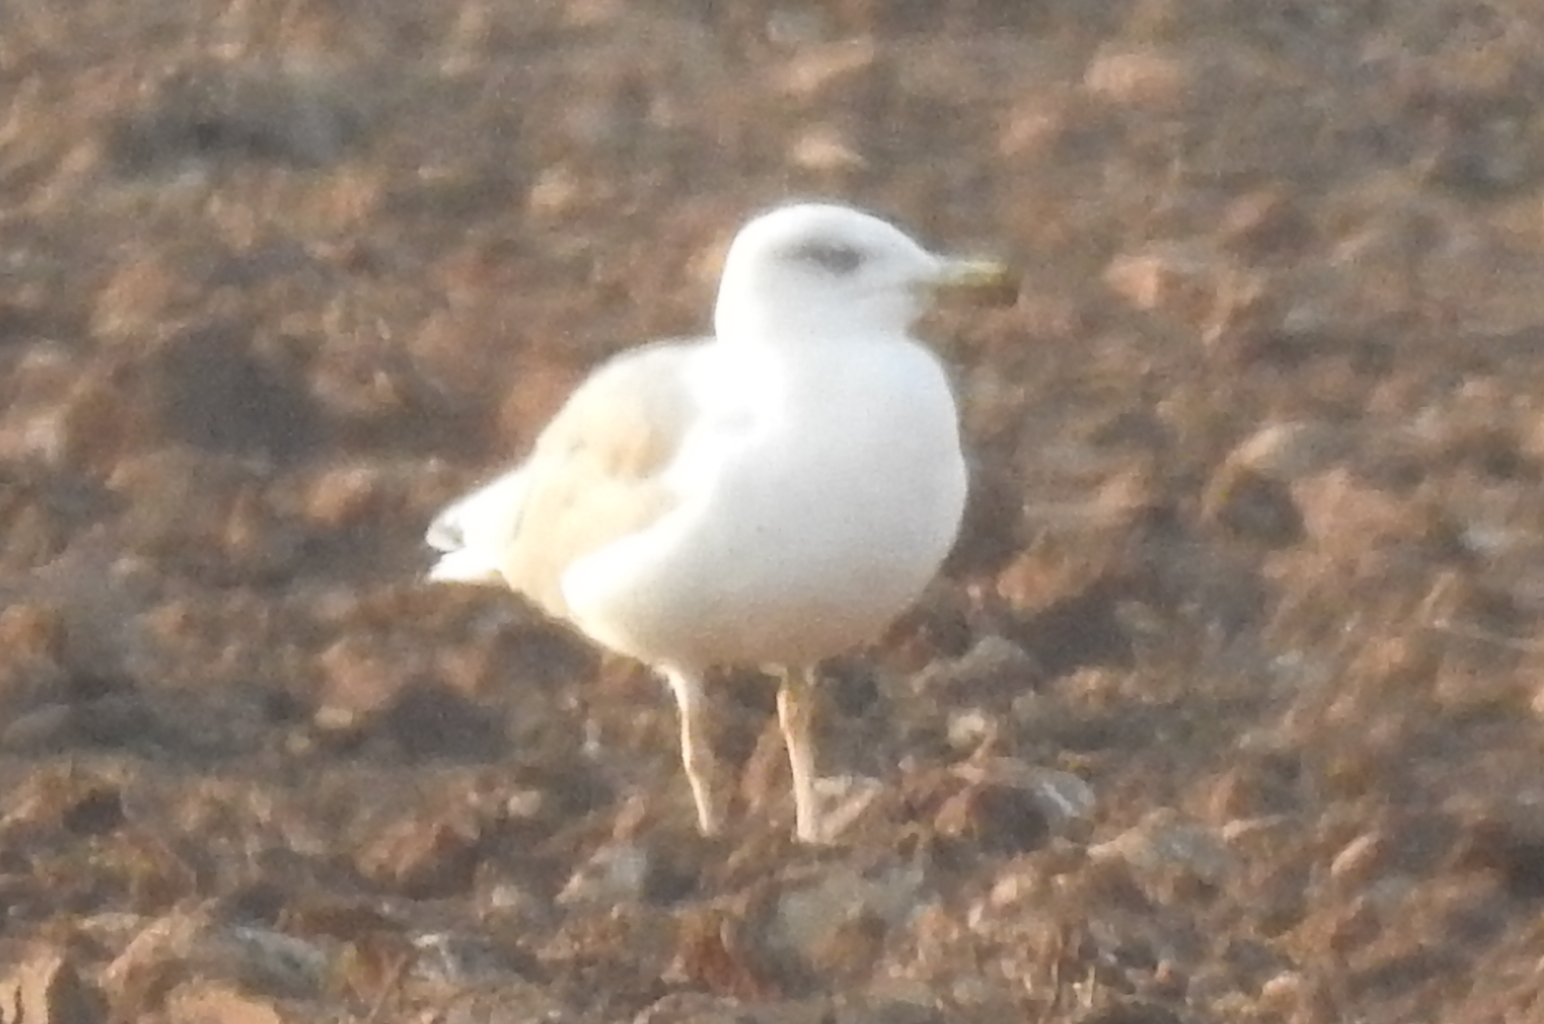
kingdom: Animalia
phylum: Chordata
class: Aves
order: Charadriiformes
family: Laridae
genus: Larus
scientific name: Larus michahellis
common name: Yellow-legged gull
